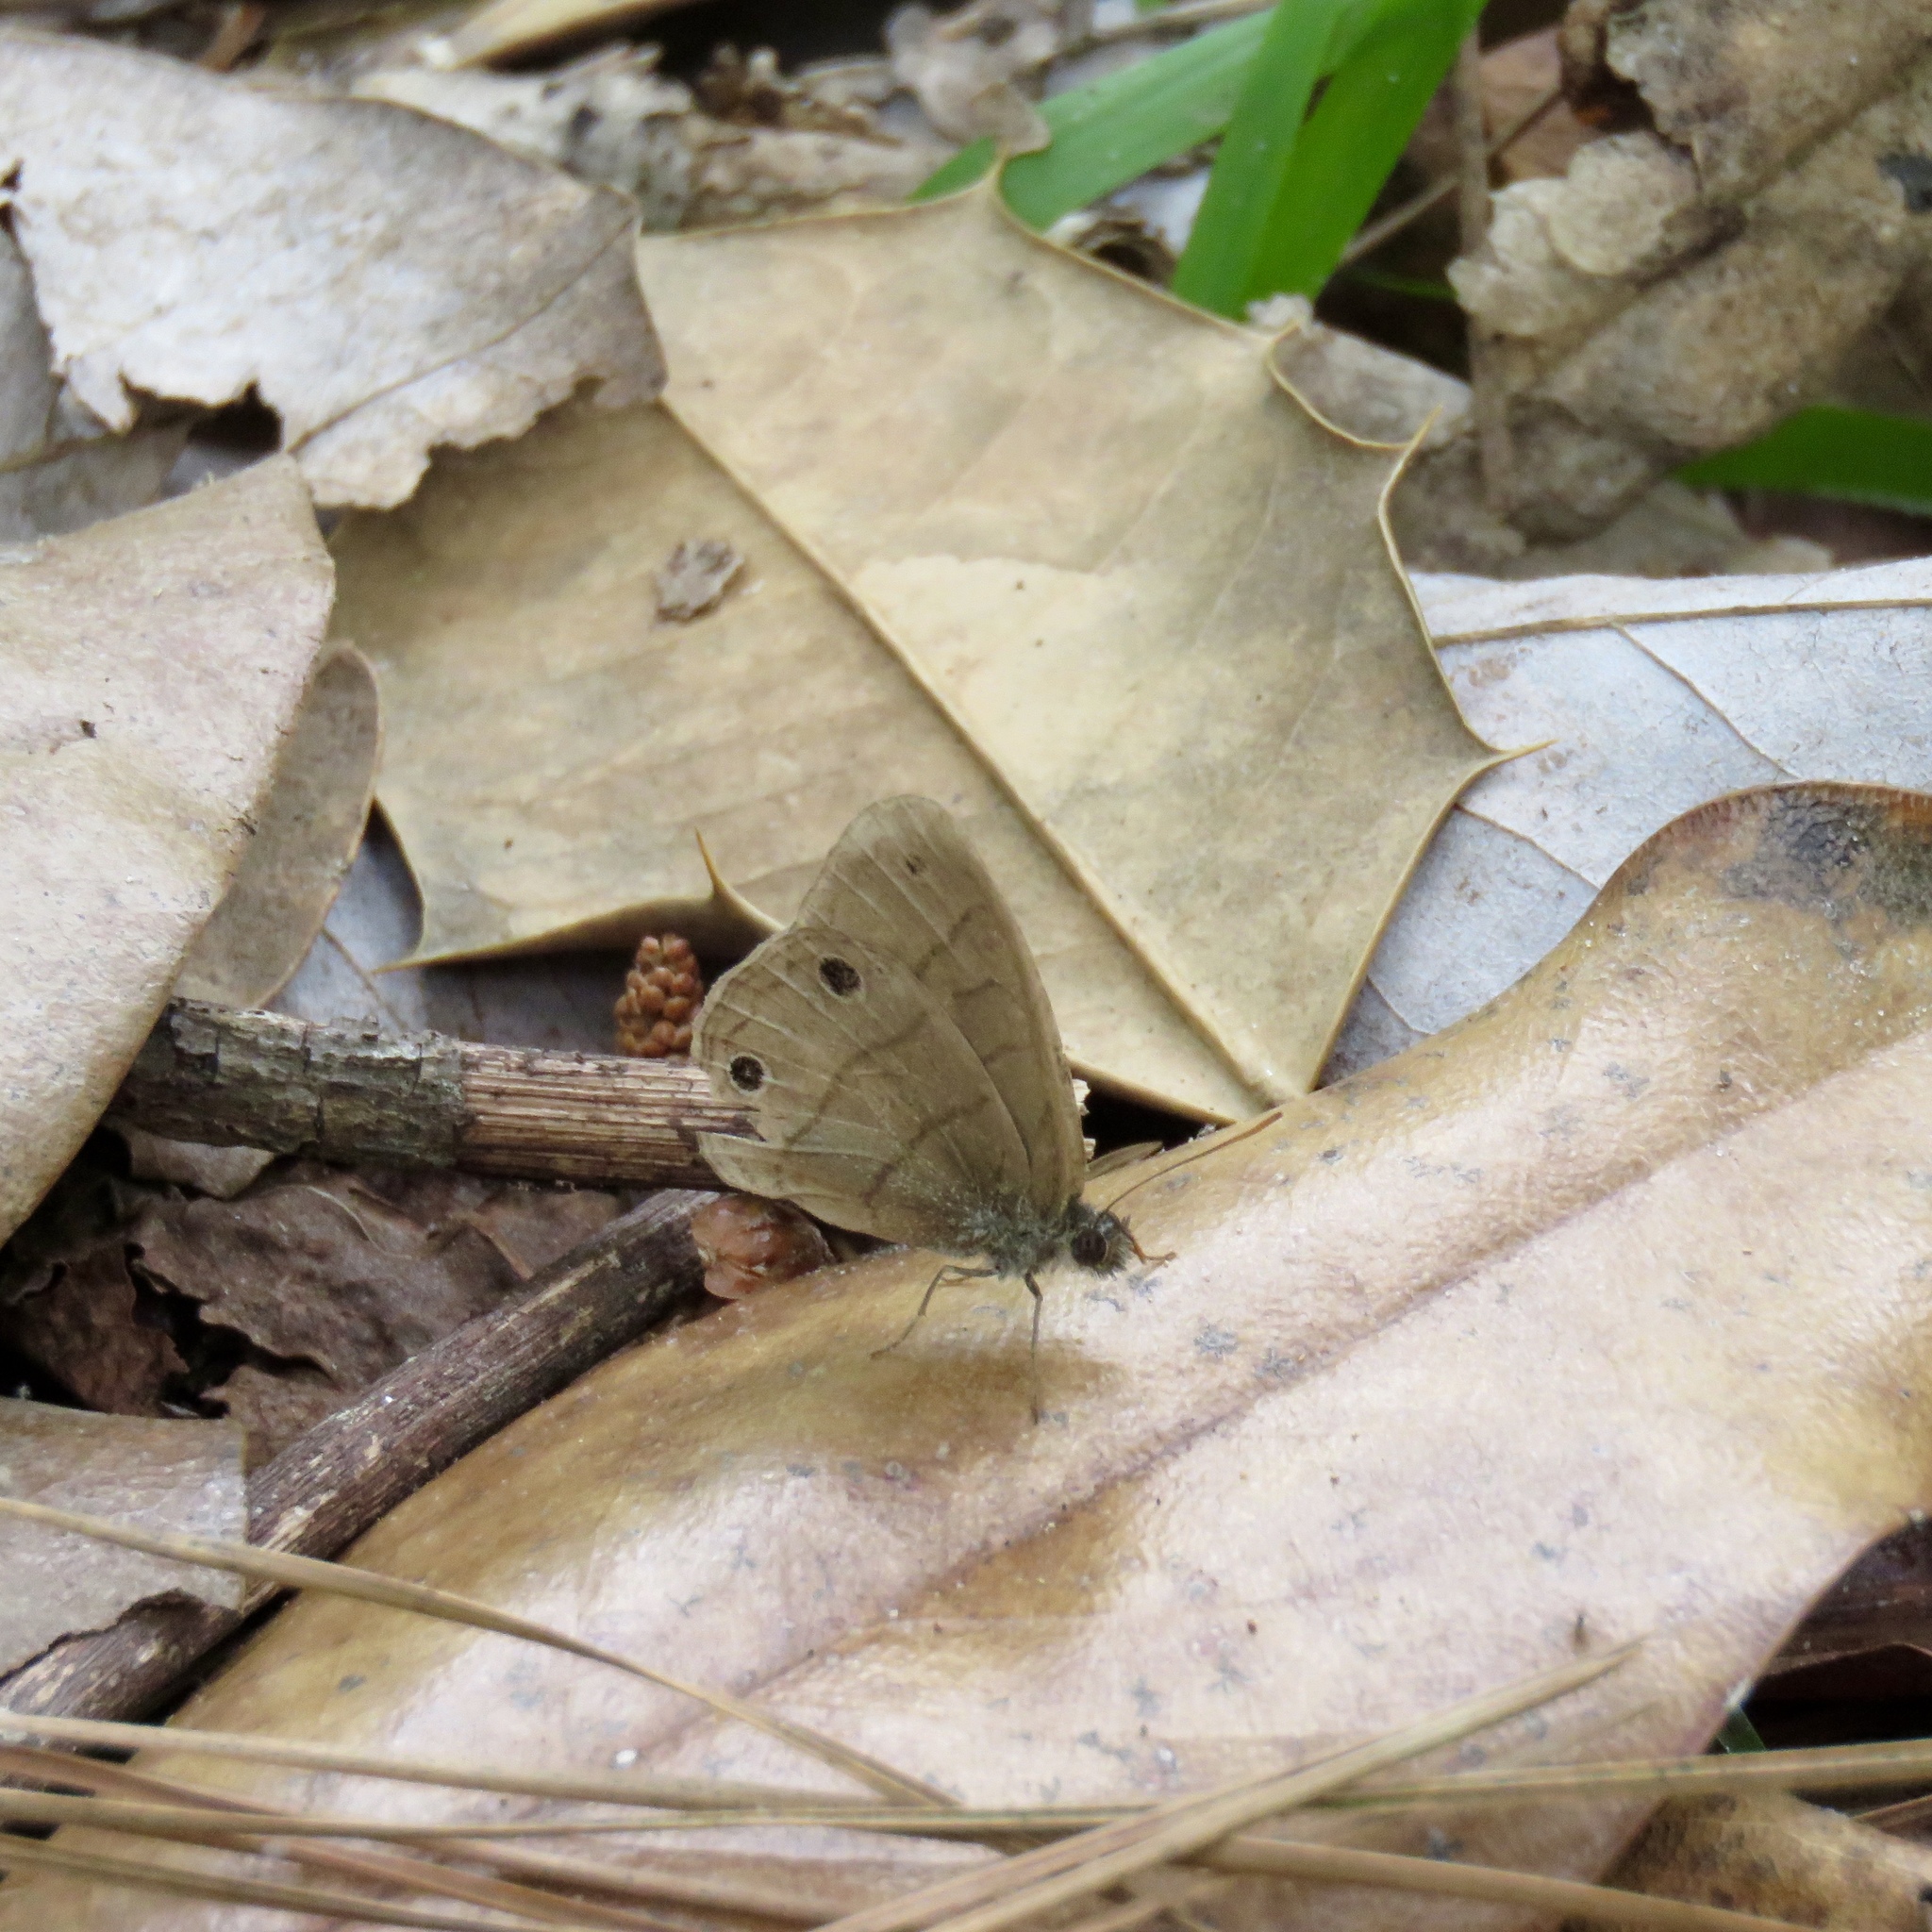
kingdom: Animalia
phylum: Arthropoda
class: Insecta
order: Lepidoptera
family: Nymphalidae
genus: Hermeuptychia
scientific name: Hermeuptychia hermes
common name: Hermes satyr
